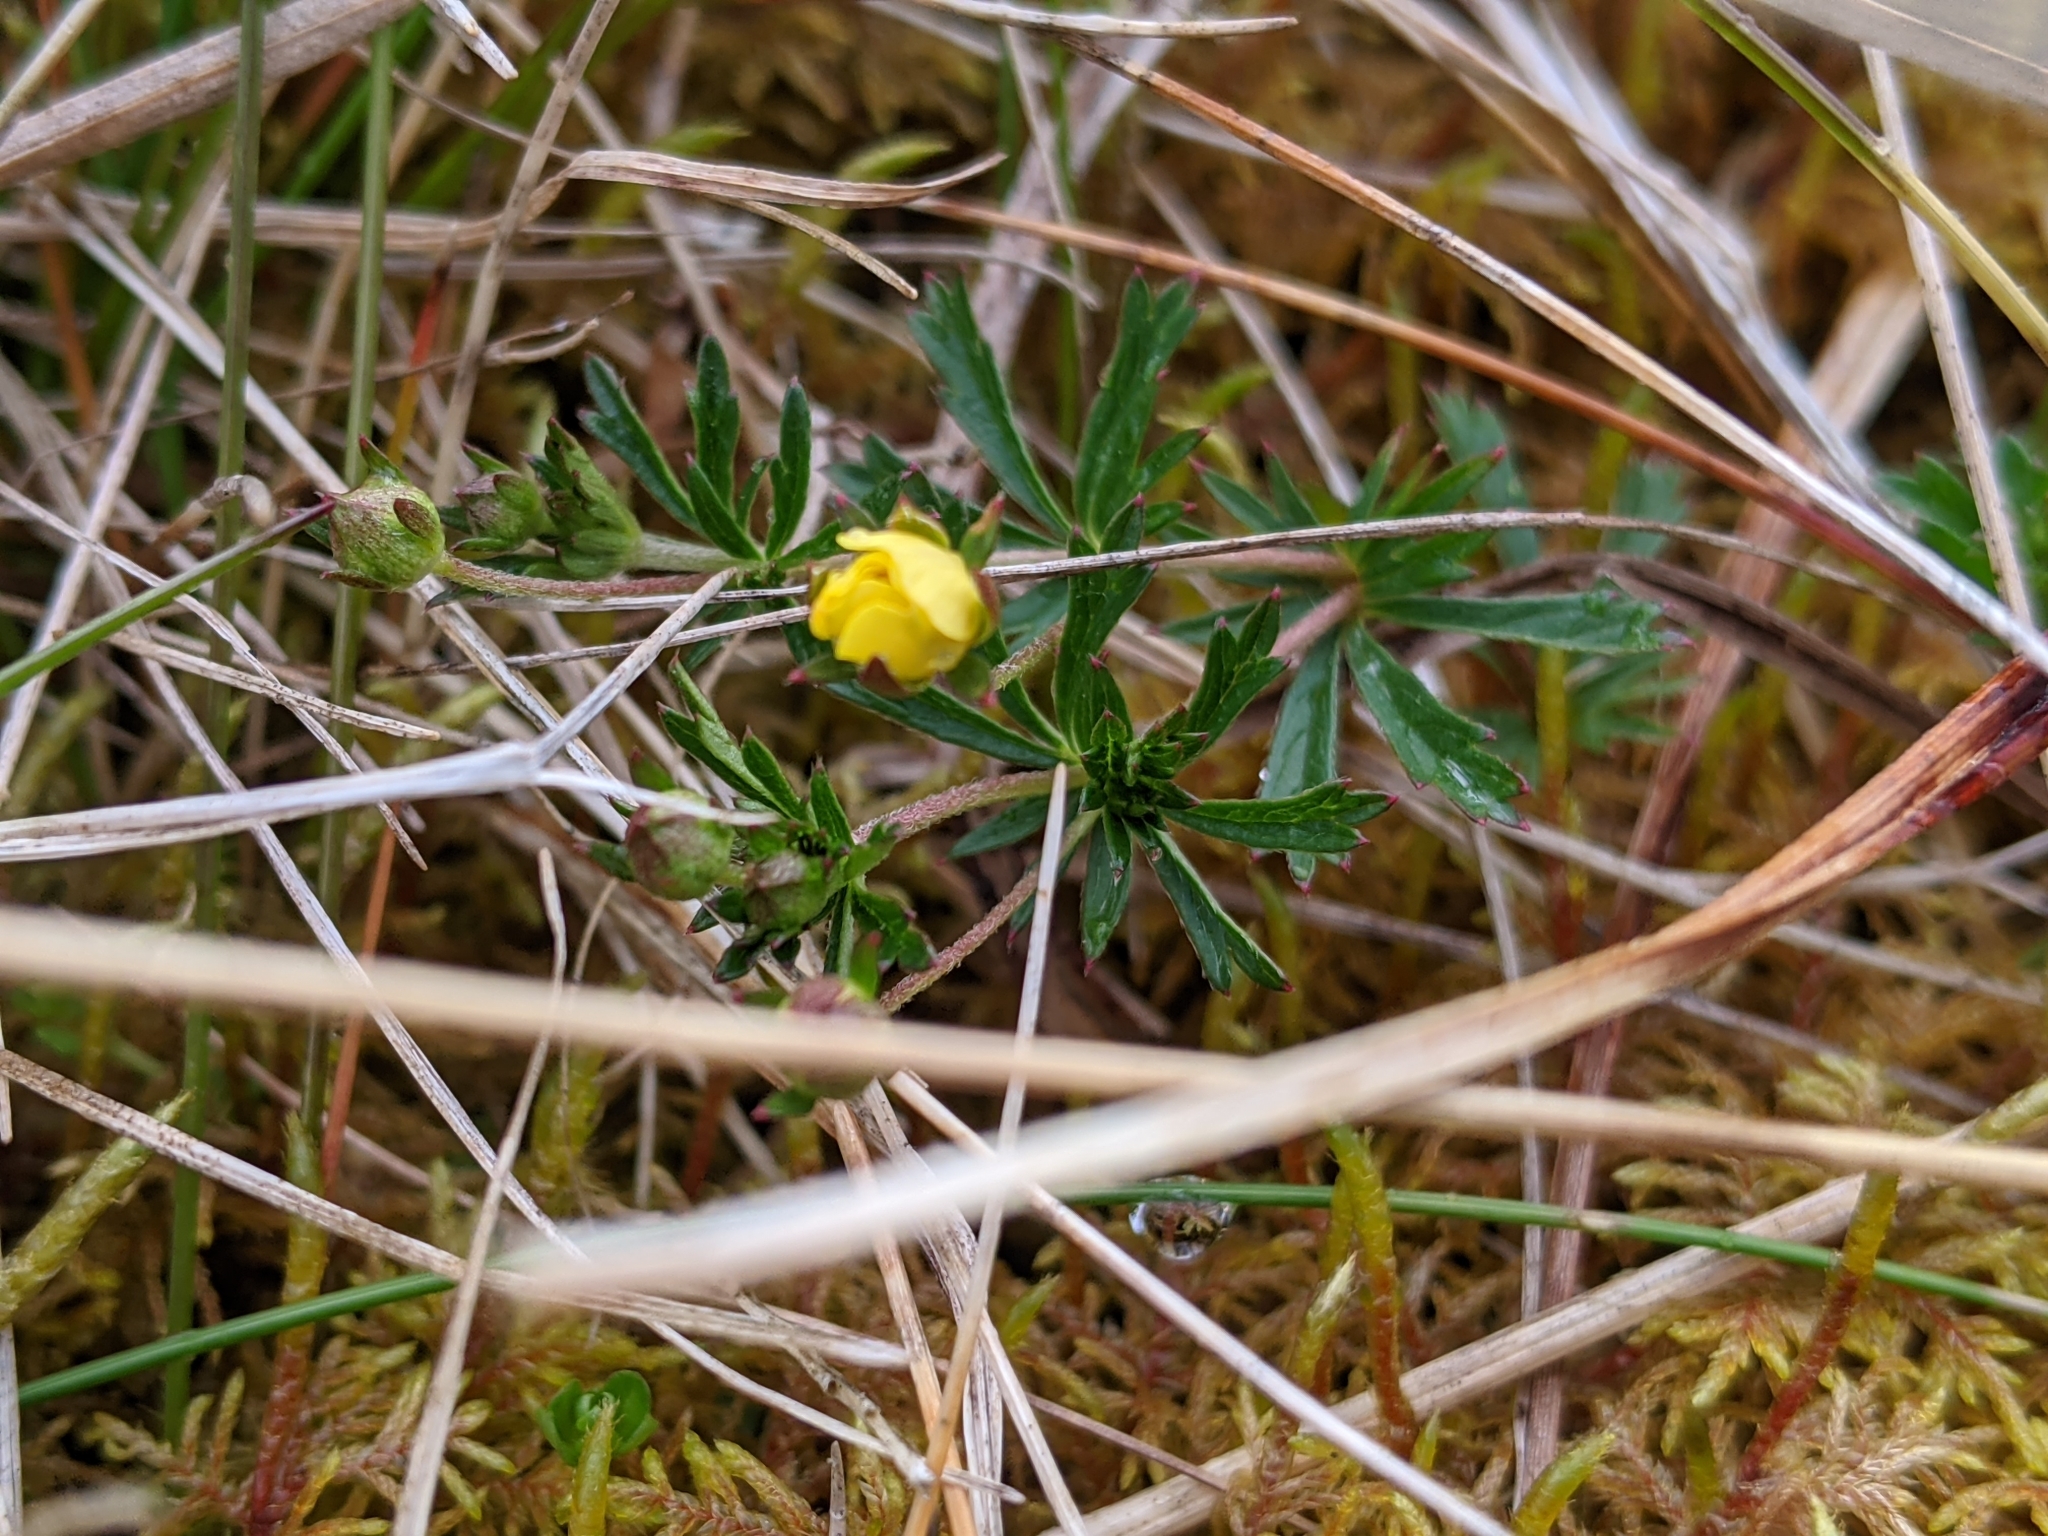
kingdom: Plantae
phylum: Tracheophyta
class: Magnoliopsida
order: Rosales
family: Rosaceae
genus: Potentilla
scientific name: Potentilla erecta
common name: Tormentil
